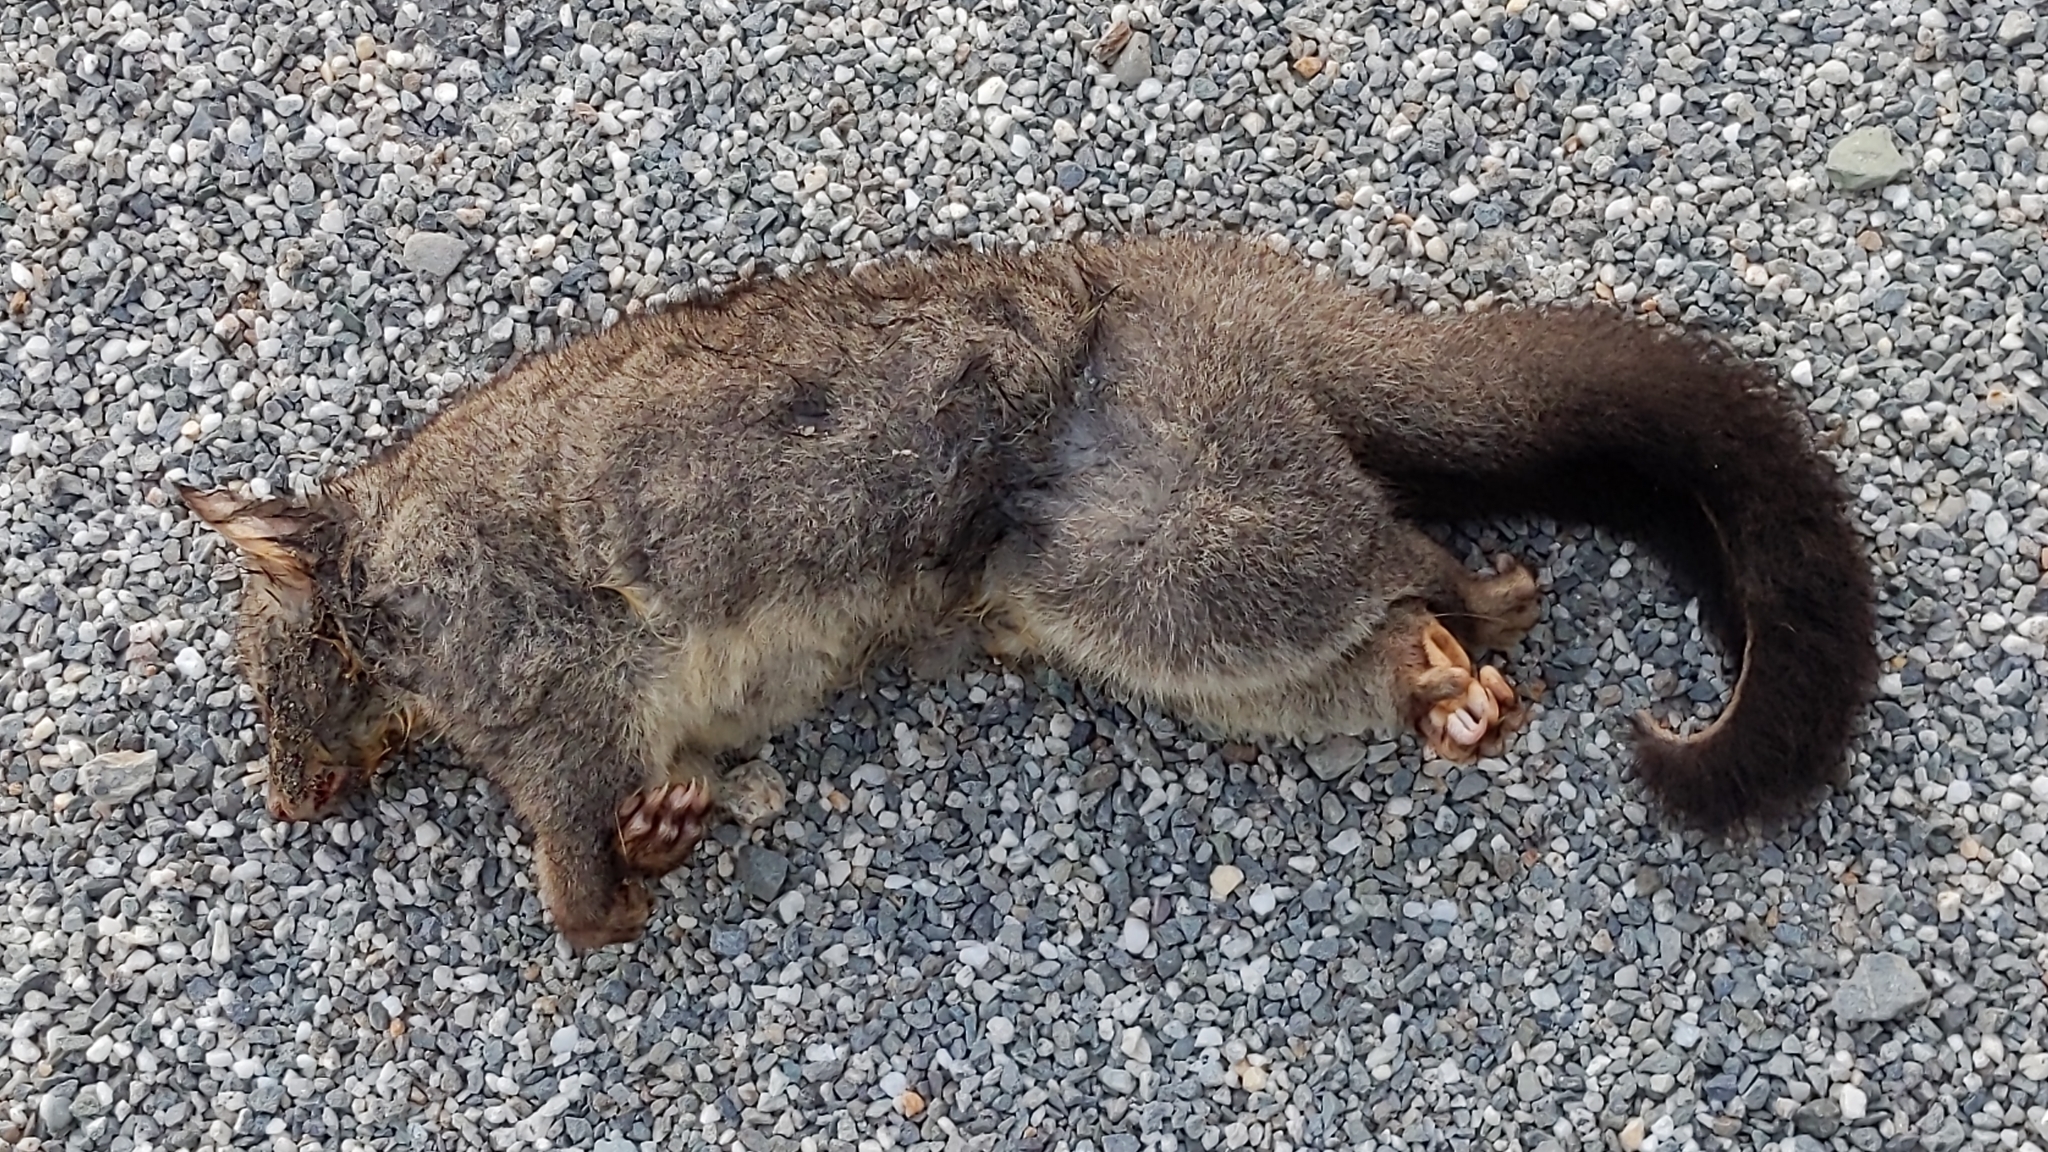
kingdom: Animalia
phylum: Chordata
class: Mammalia
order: Diprotodontia
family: Phalangeridae
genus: Trichosurus
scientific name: Trichosurus vulpecula
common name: Common brushtail
